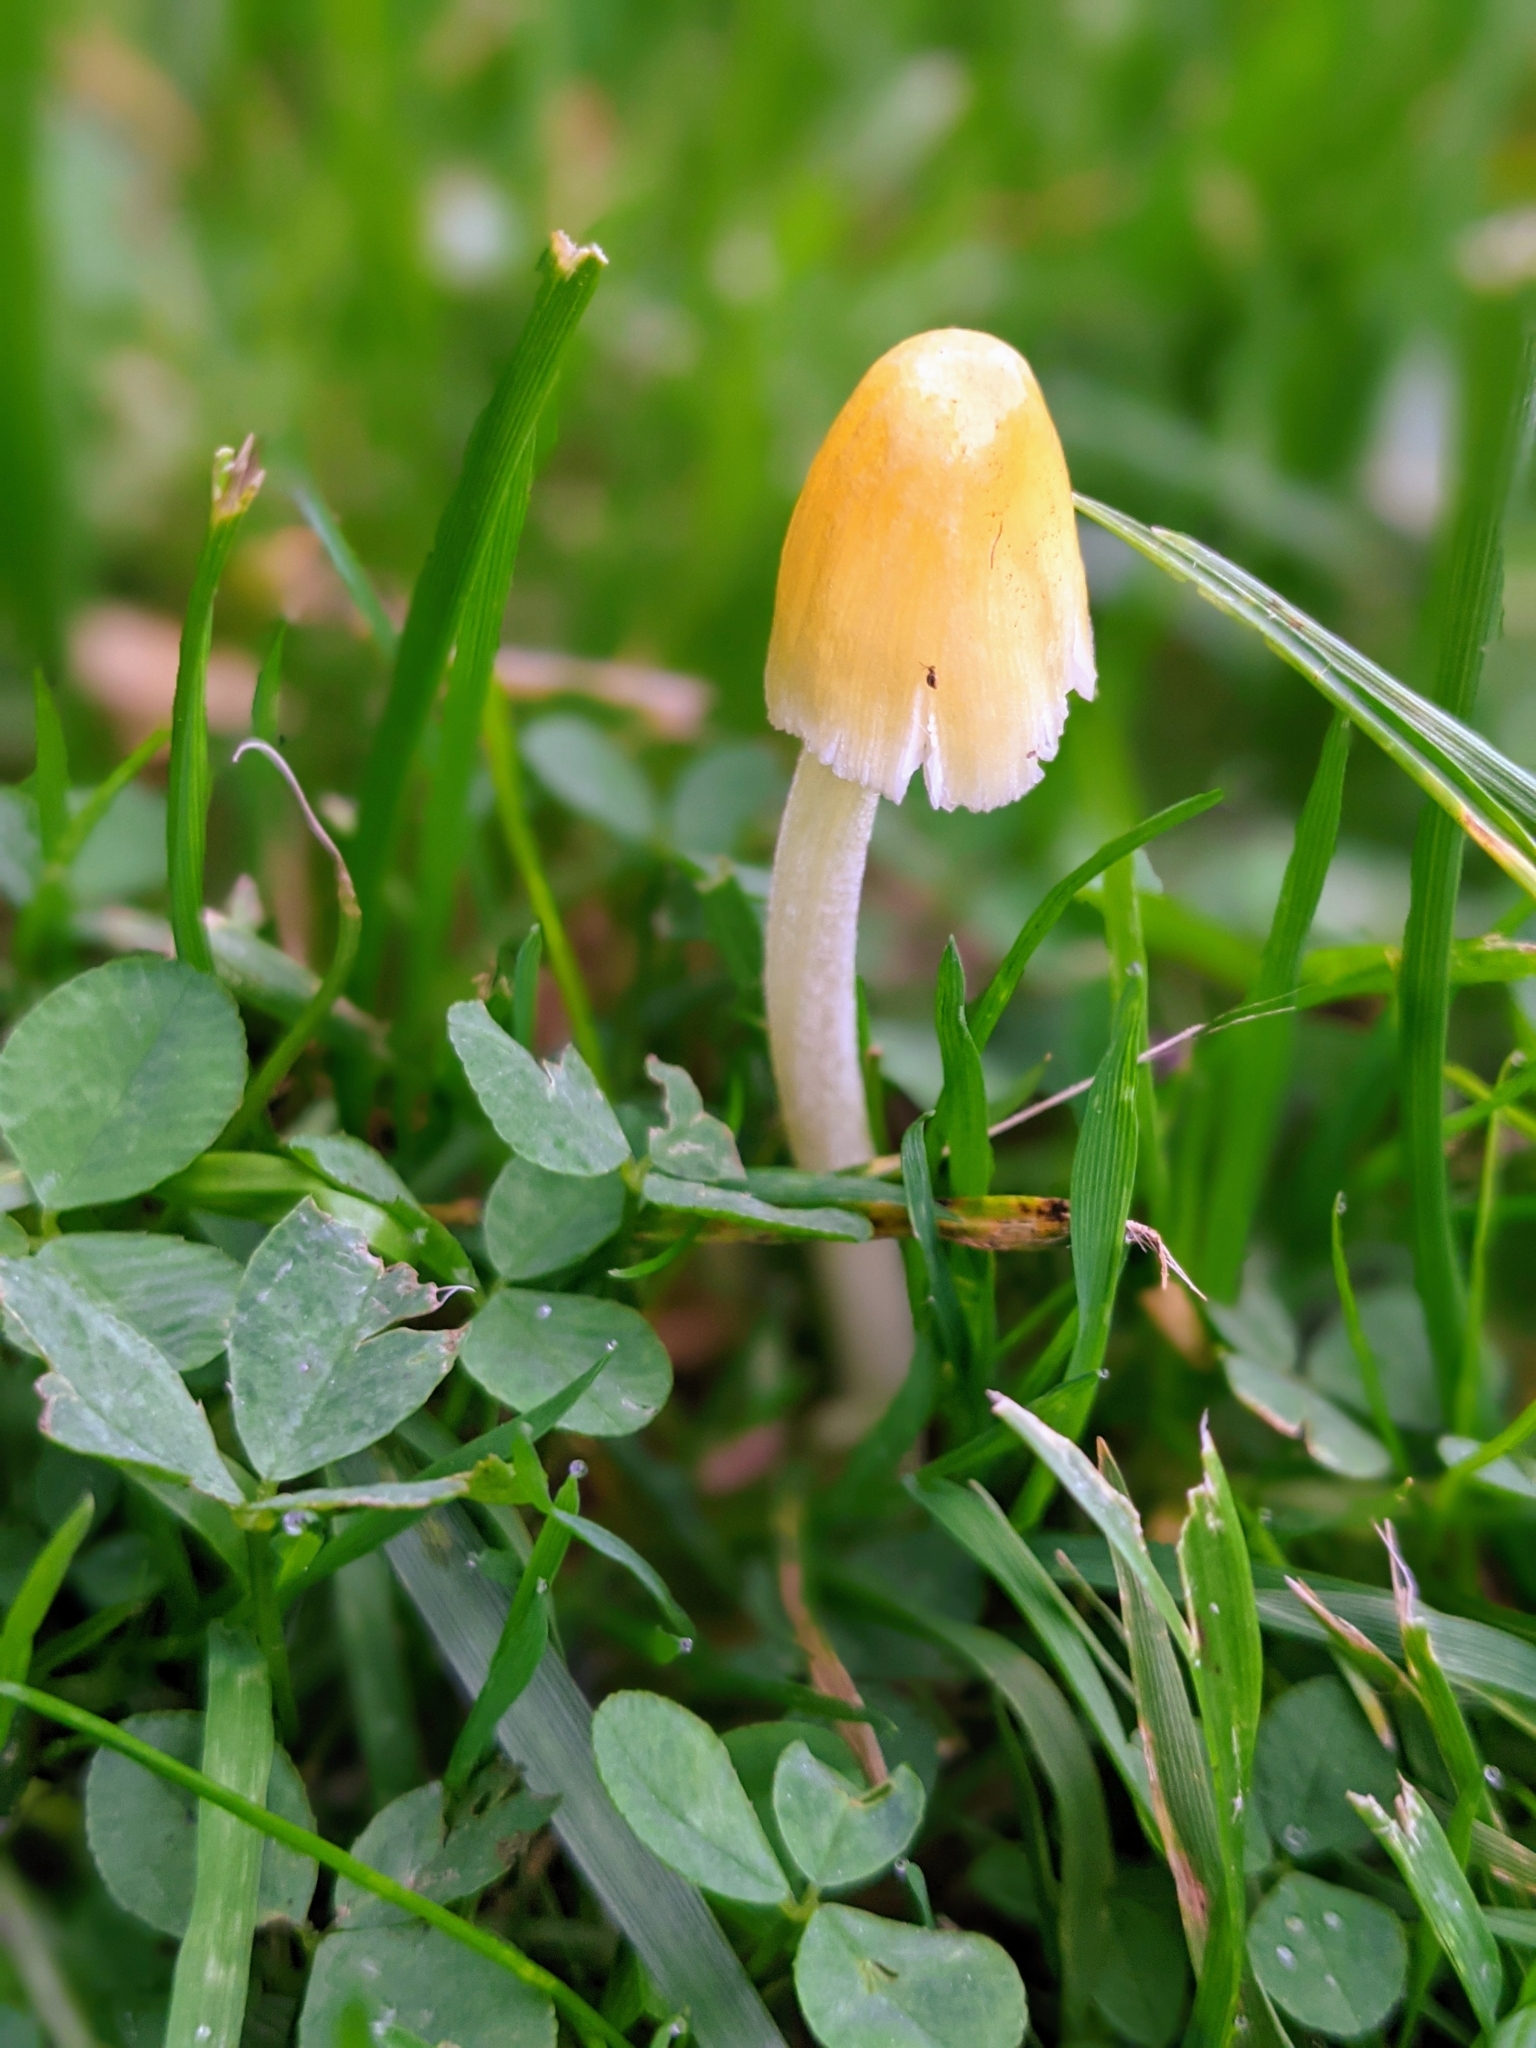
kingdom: Fungi
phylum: Basidiomycota
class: Agaricomycetes
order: Agaricales
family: Bolbitiaceae
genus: Bolbitius
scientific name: Bolbitius titubans
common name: Yellow fieldcap
